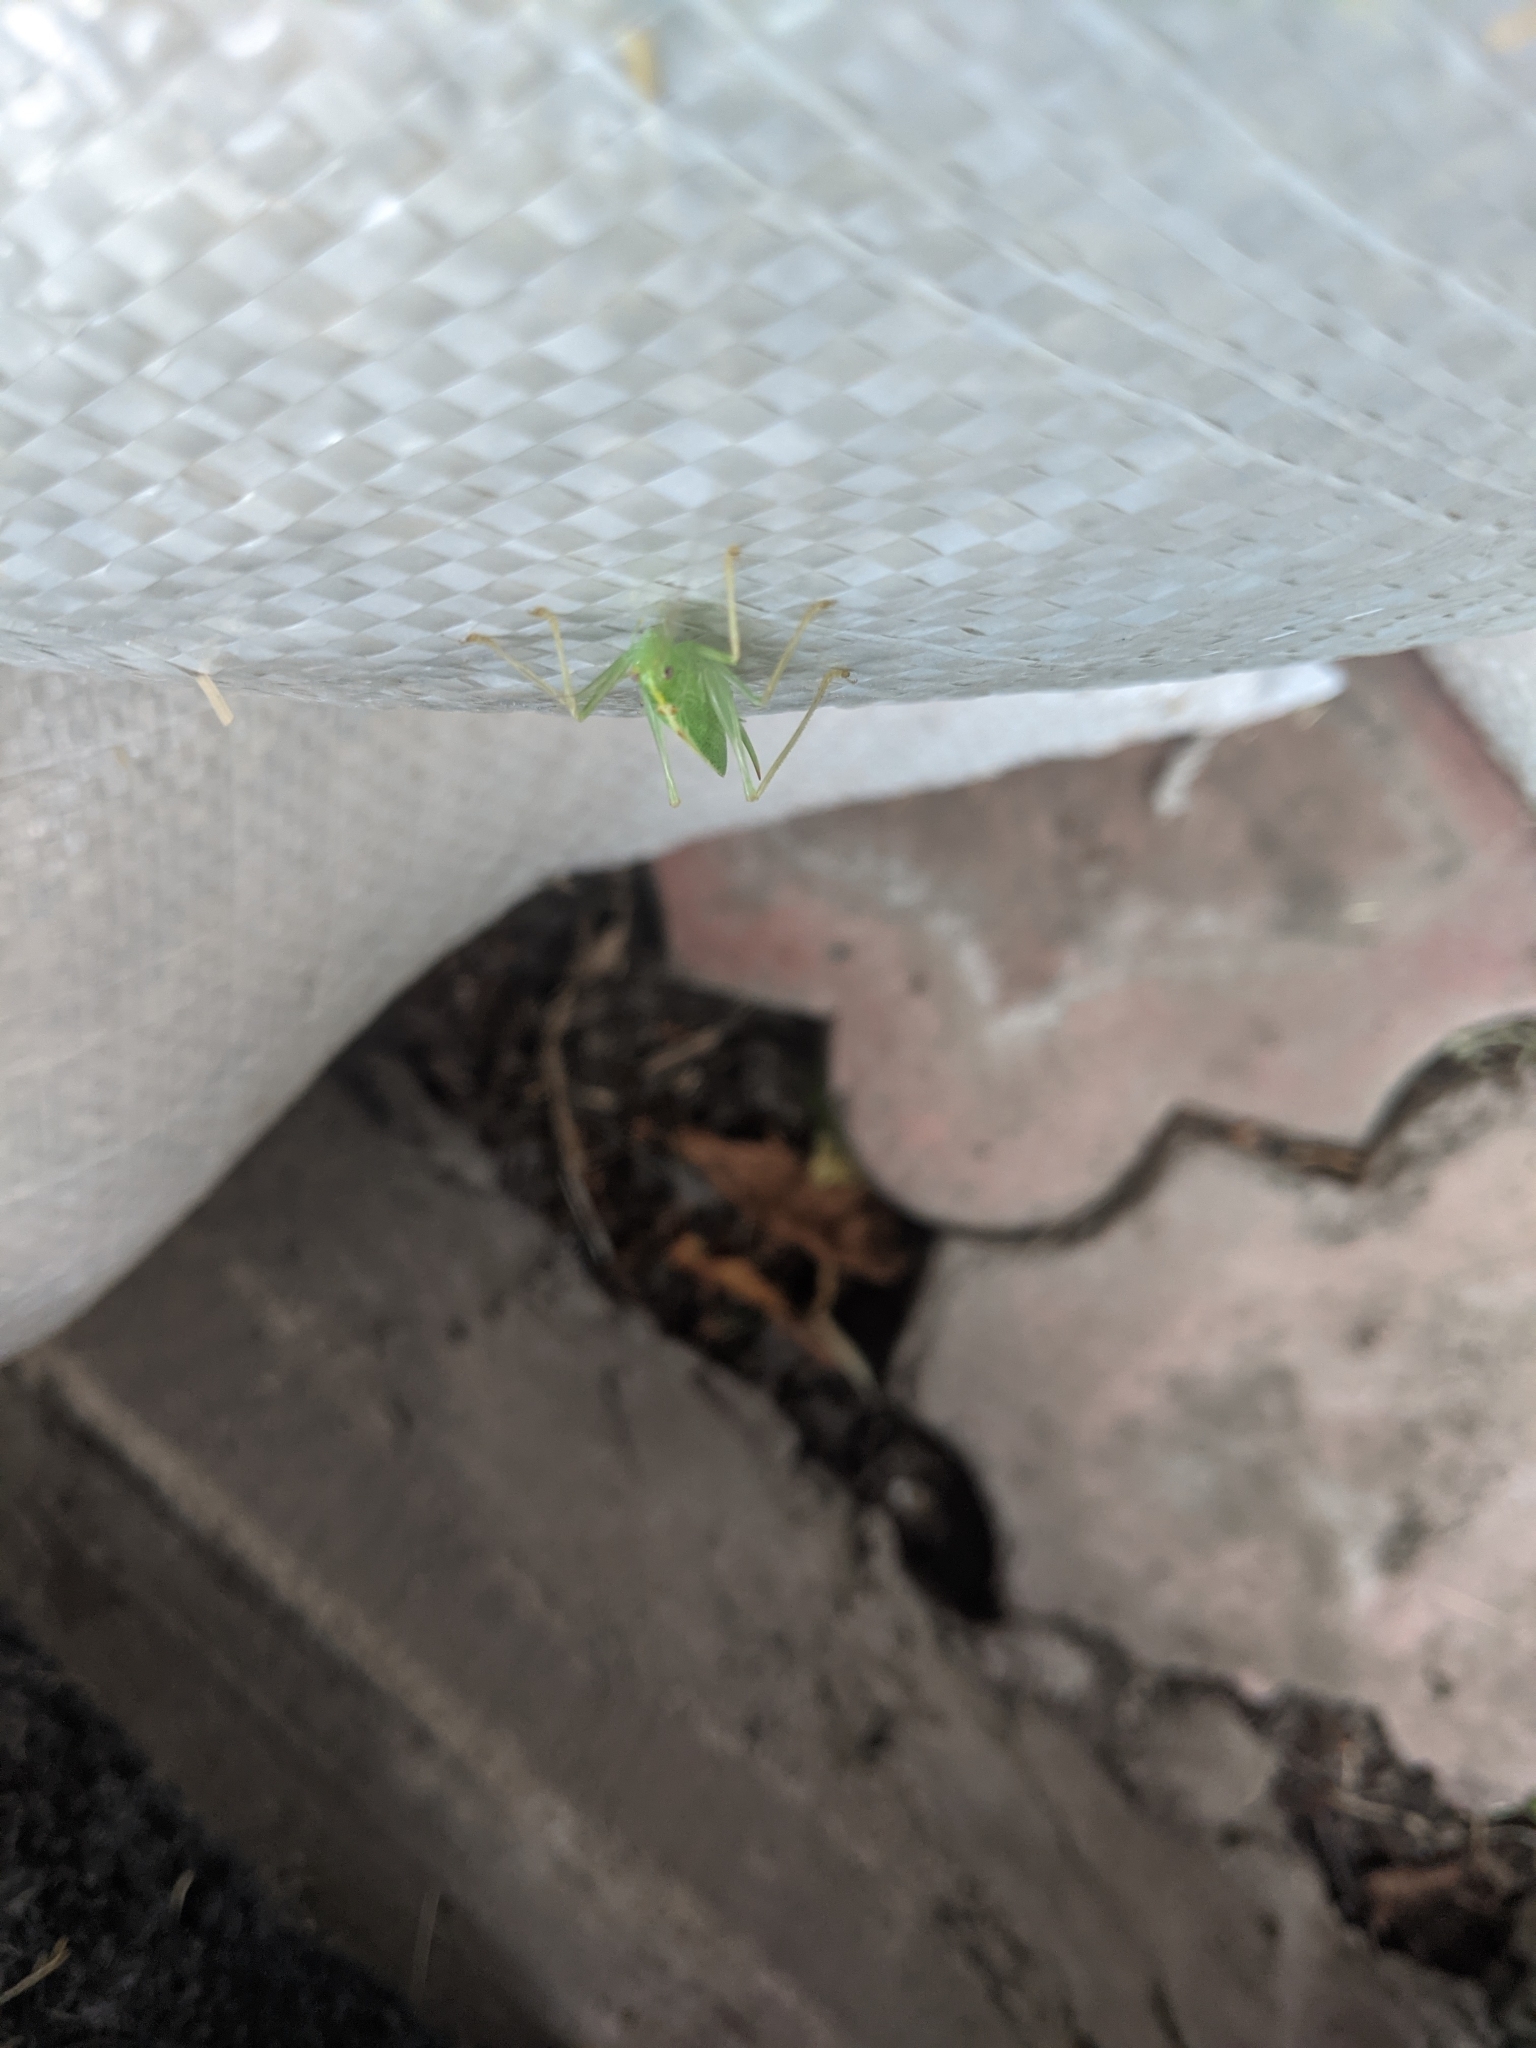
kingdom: Animalia
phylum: Arthropoda
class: Insecta
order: Orthoptera
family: Tettigoniidae
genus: Meconema
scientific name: Meconema thalassinum
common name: Oak bush-cricket
